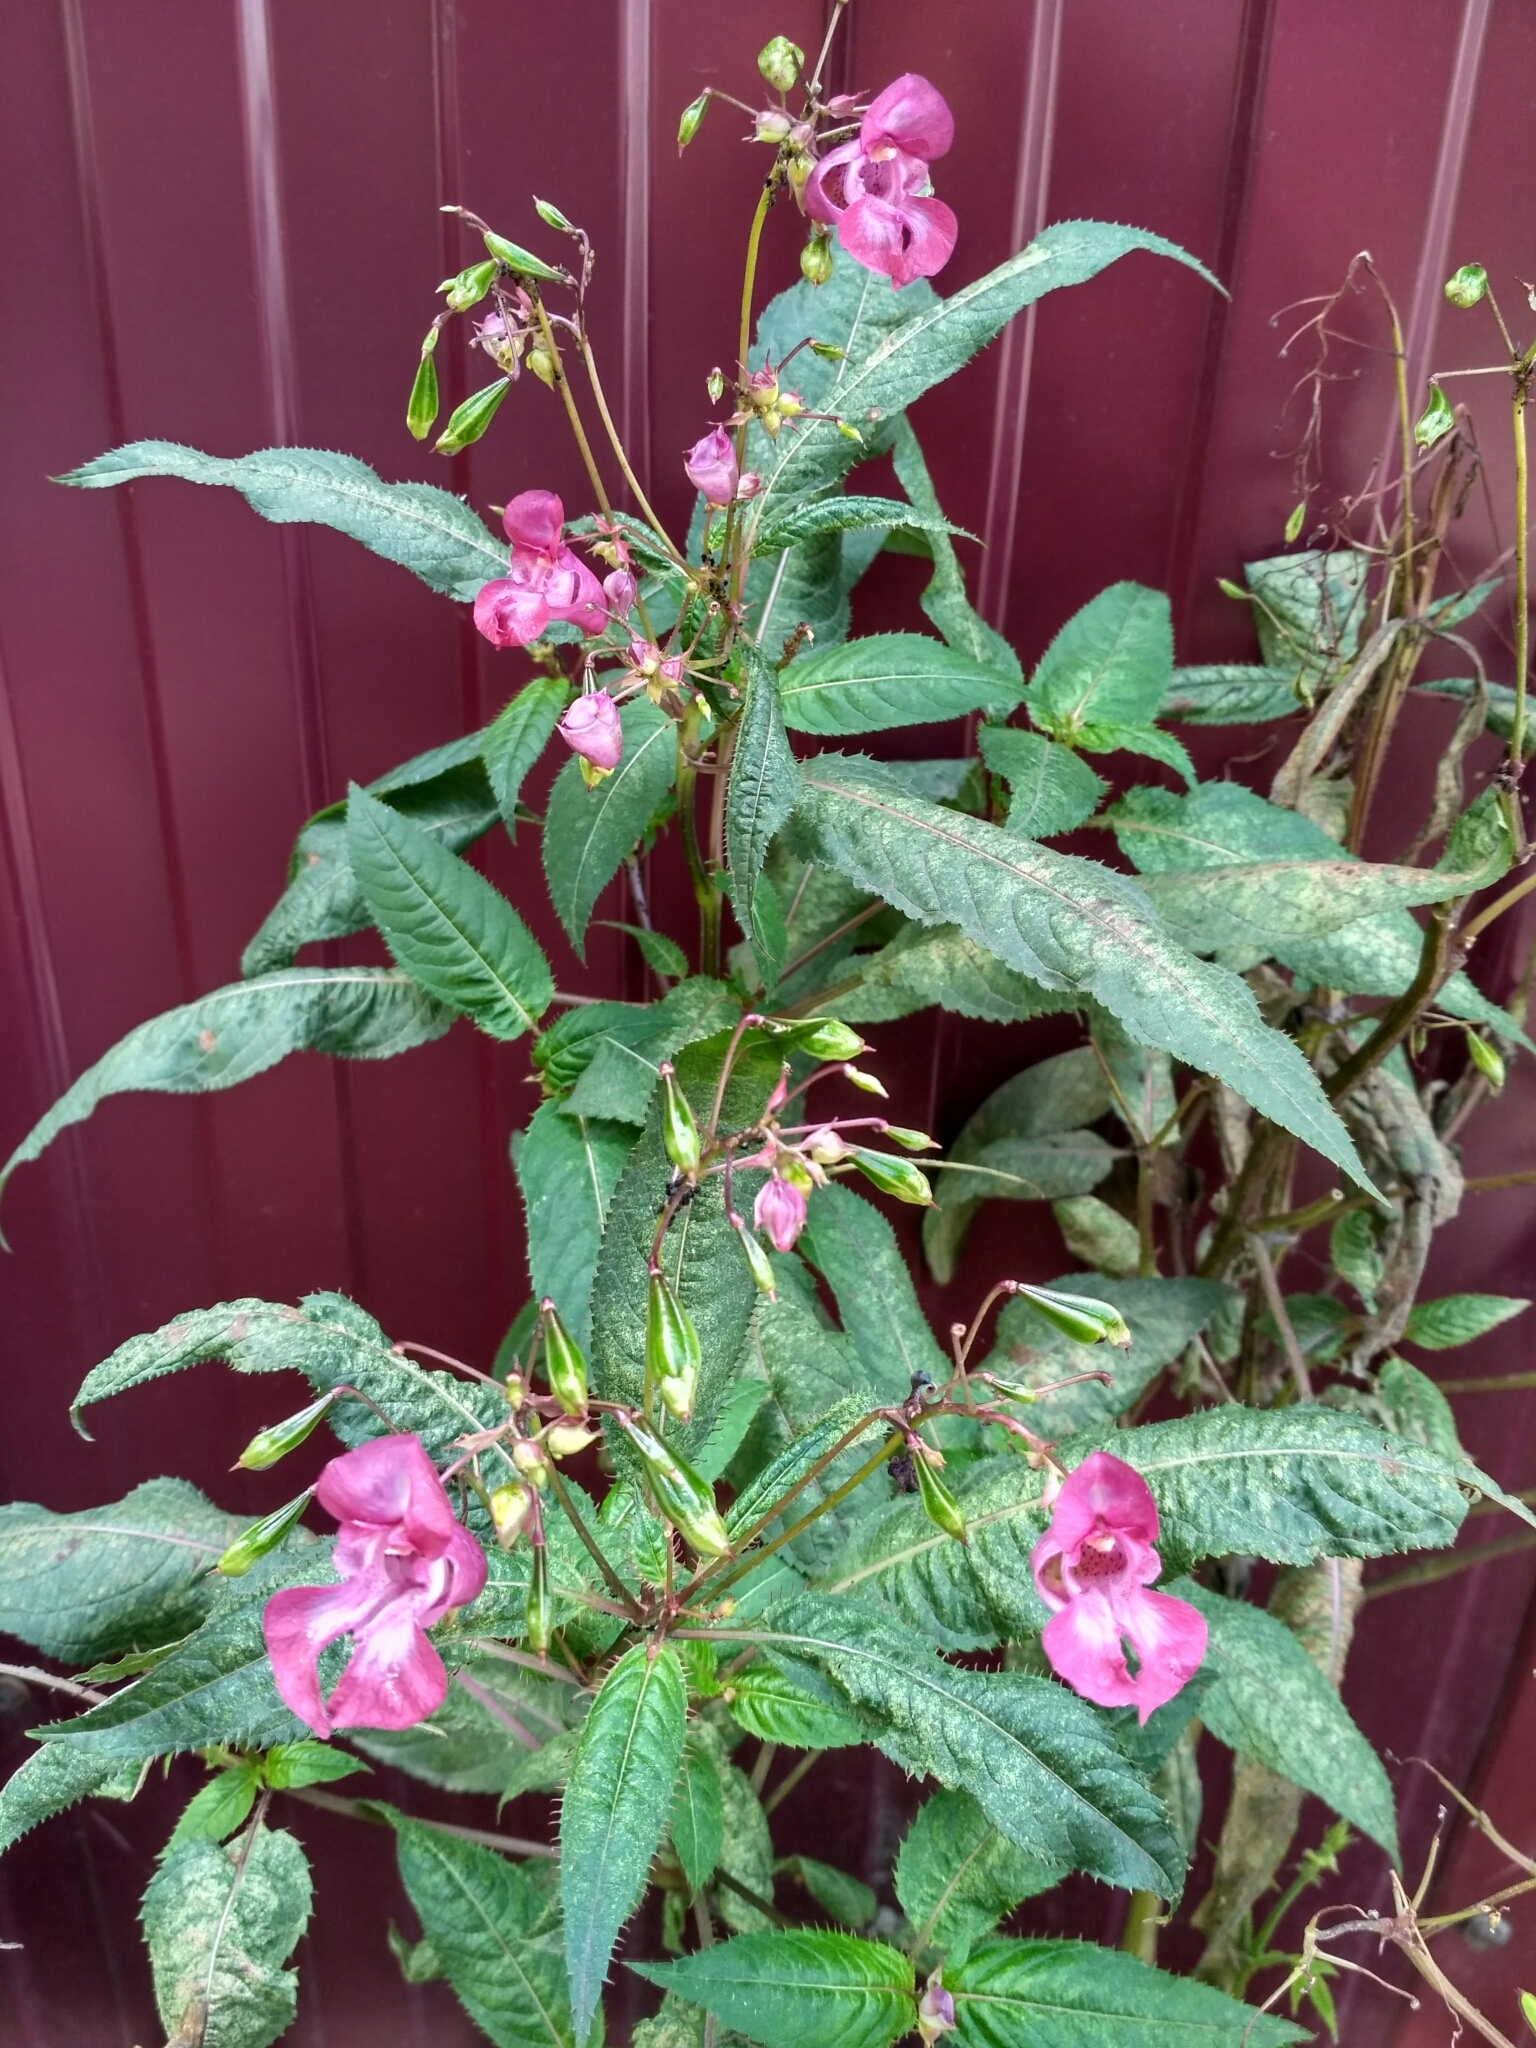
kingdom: Plantae
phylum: Tracheophyta
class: Magnoliopsida
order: Ericales
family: Balsaminaceae
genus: Impatiens
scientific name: Impatiens glandulifera
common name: Himalayan balsam
